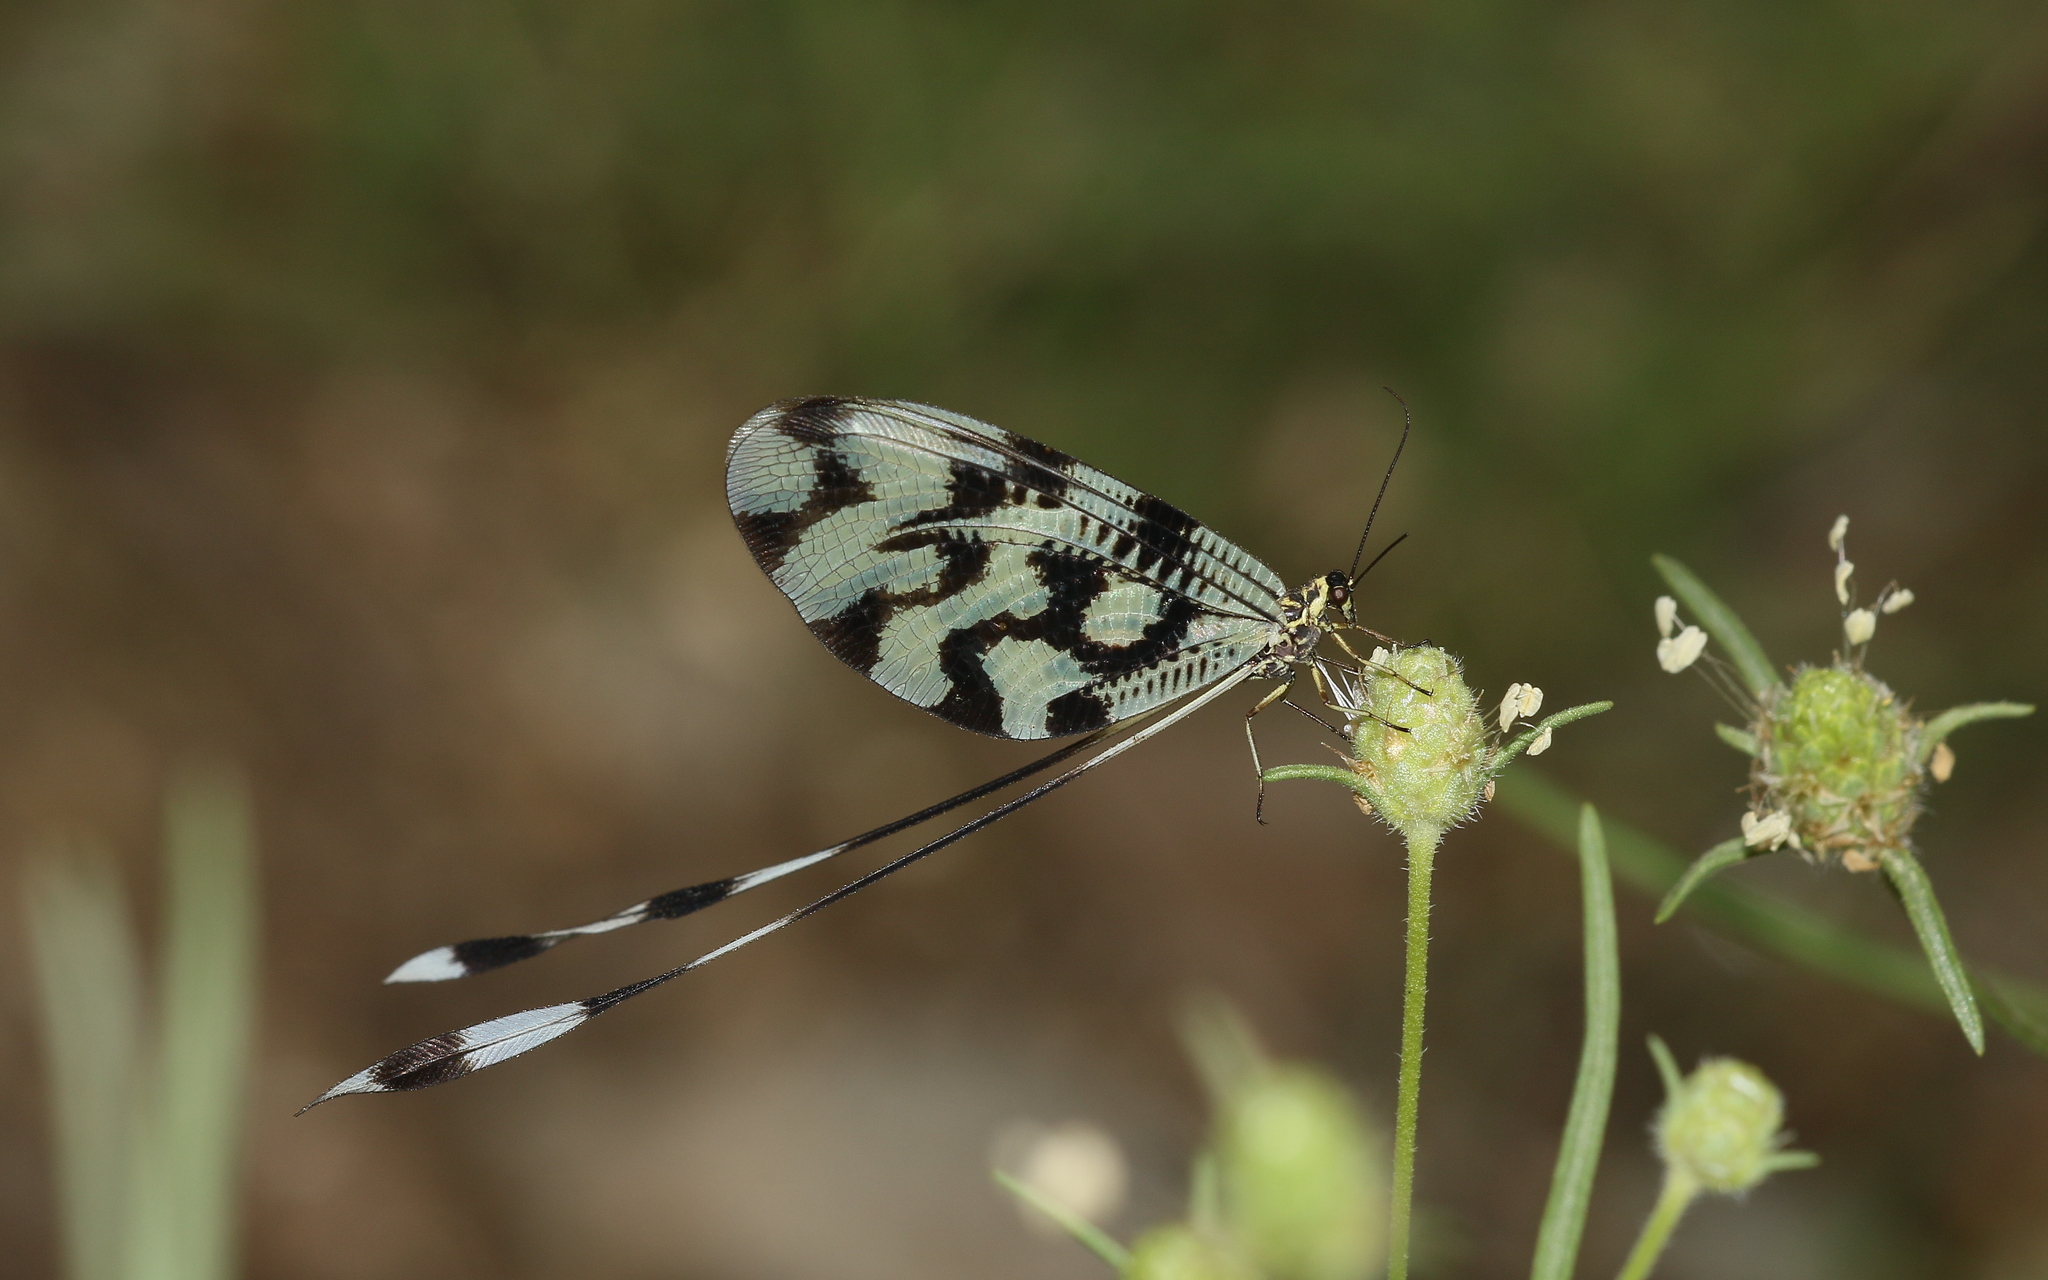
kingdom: Animalia
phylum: Arthropoda
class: Insecta
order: Neuroptera
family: Nemopteridae
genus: Nemoptera
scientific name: Nemoptera sinuata
